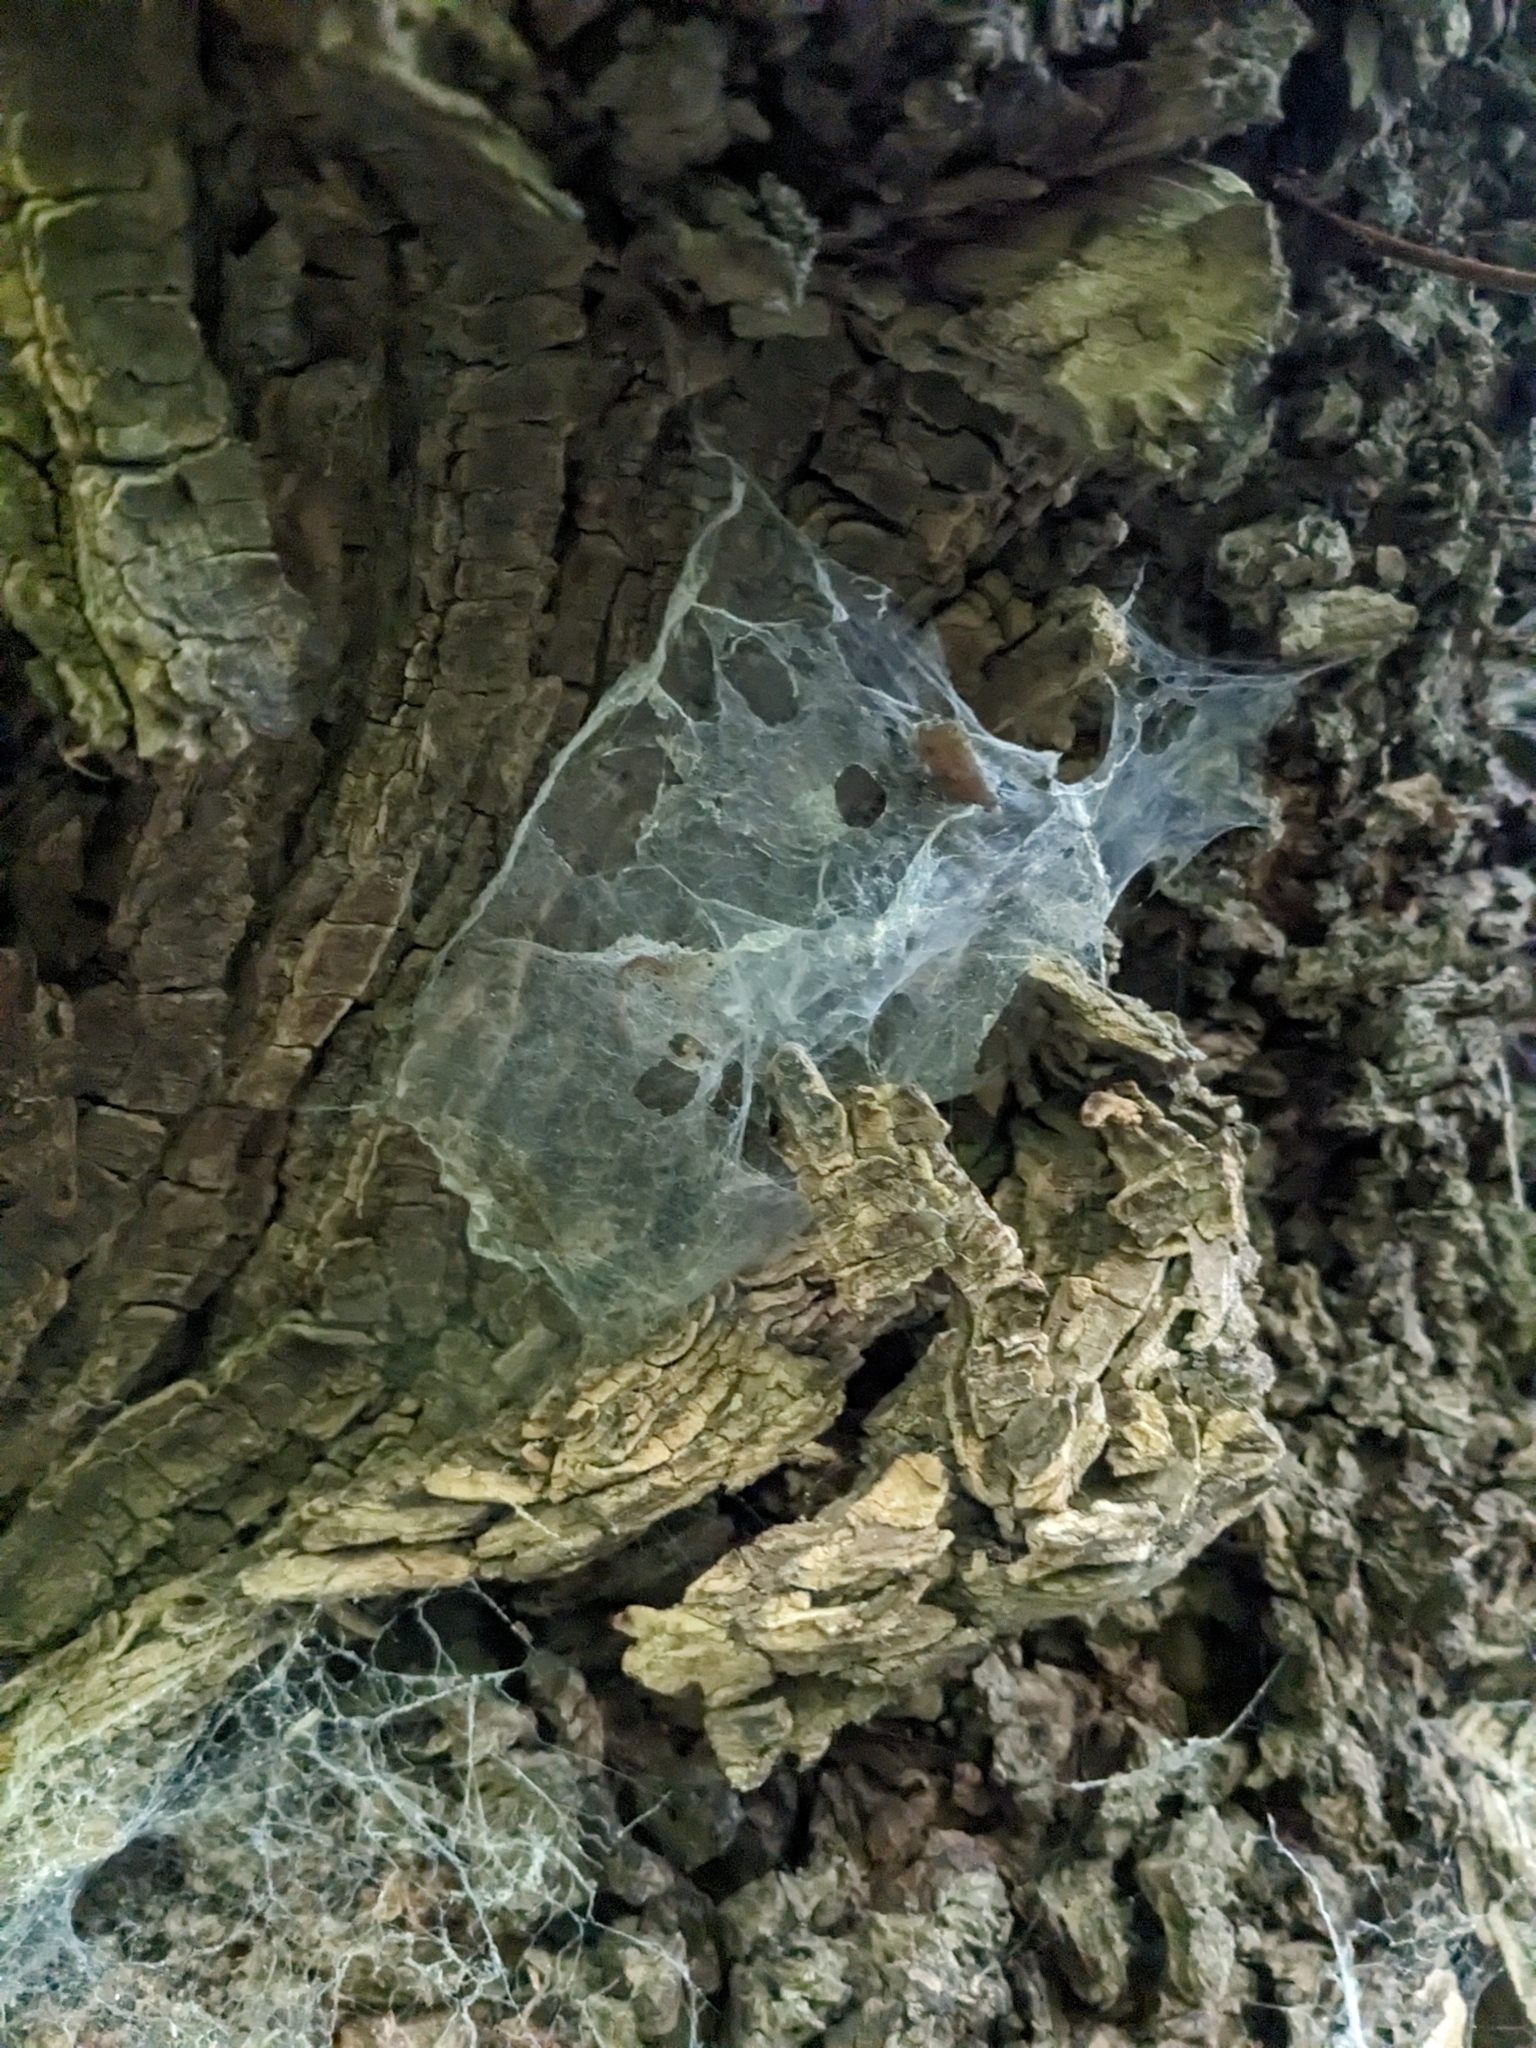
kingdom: Animalia
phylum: Arthropoda
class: Arachnida
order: Araneae
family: Stiphidiidae
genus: Stiphidion
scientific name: Stiphidion facetum
